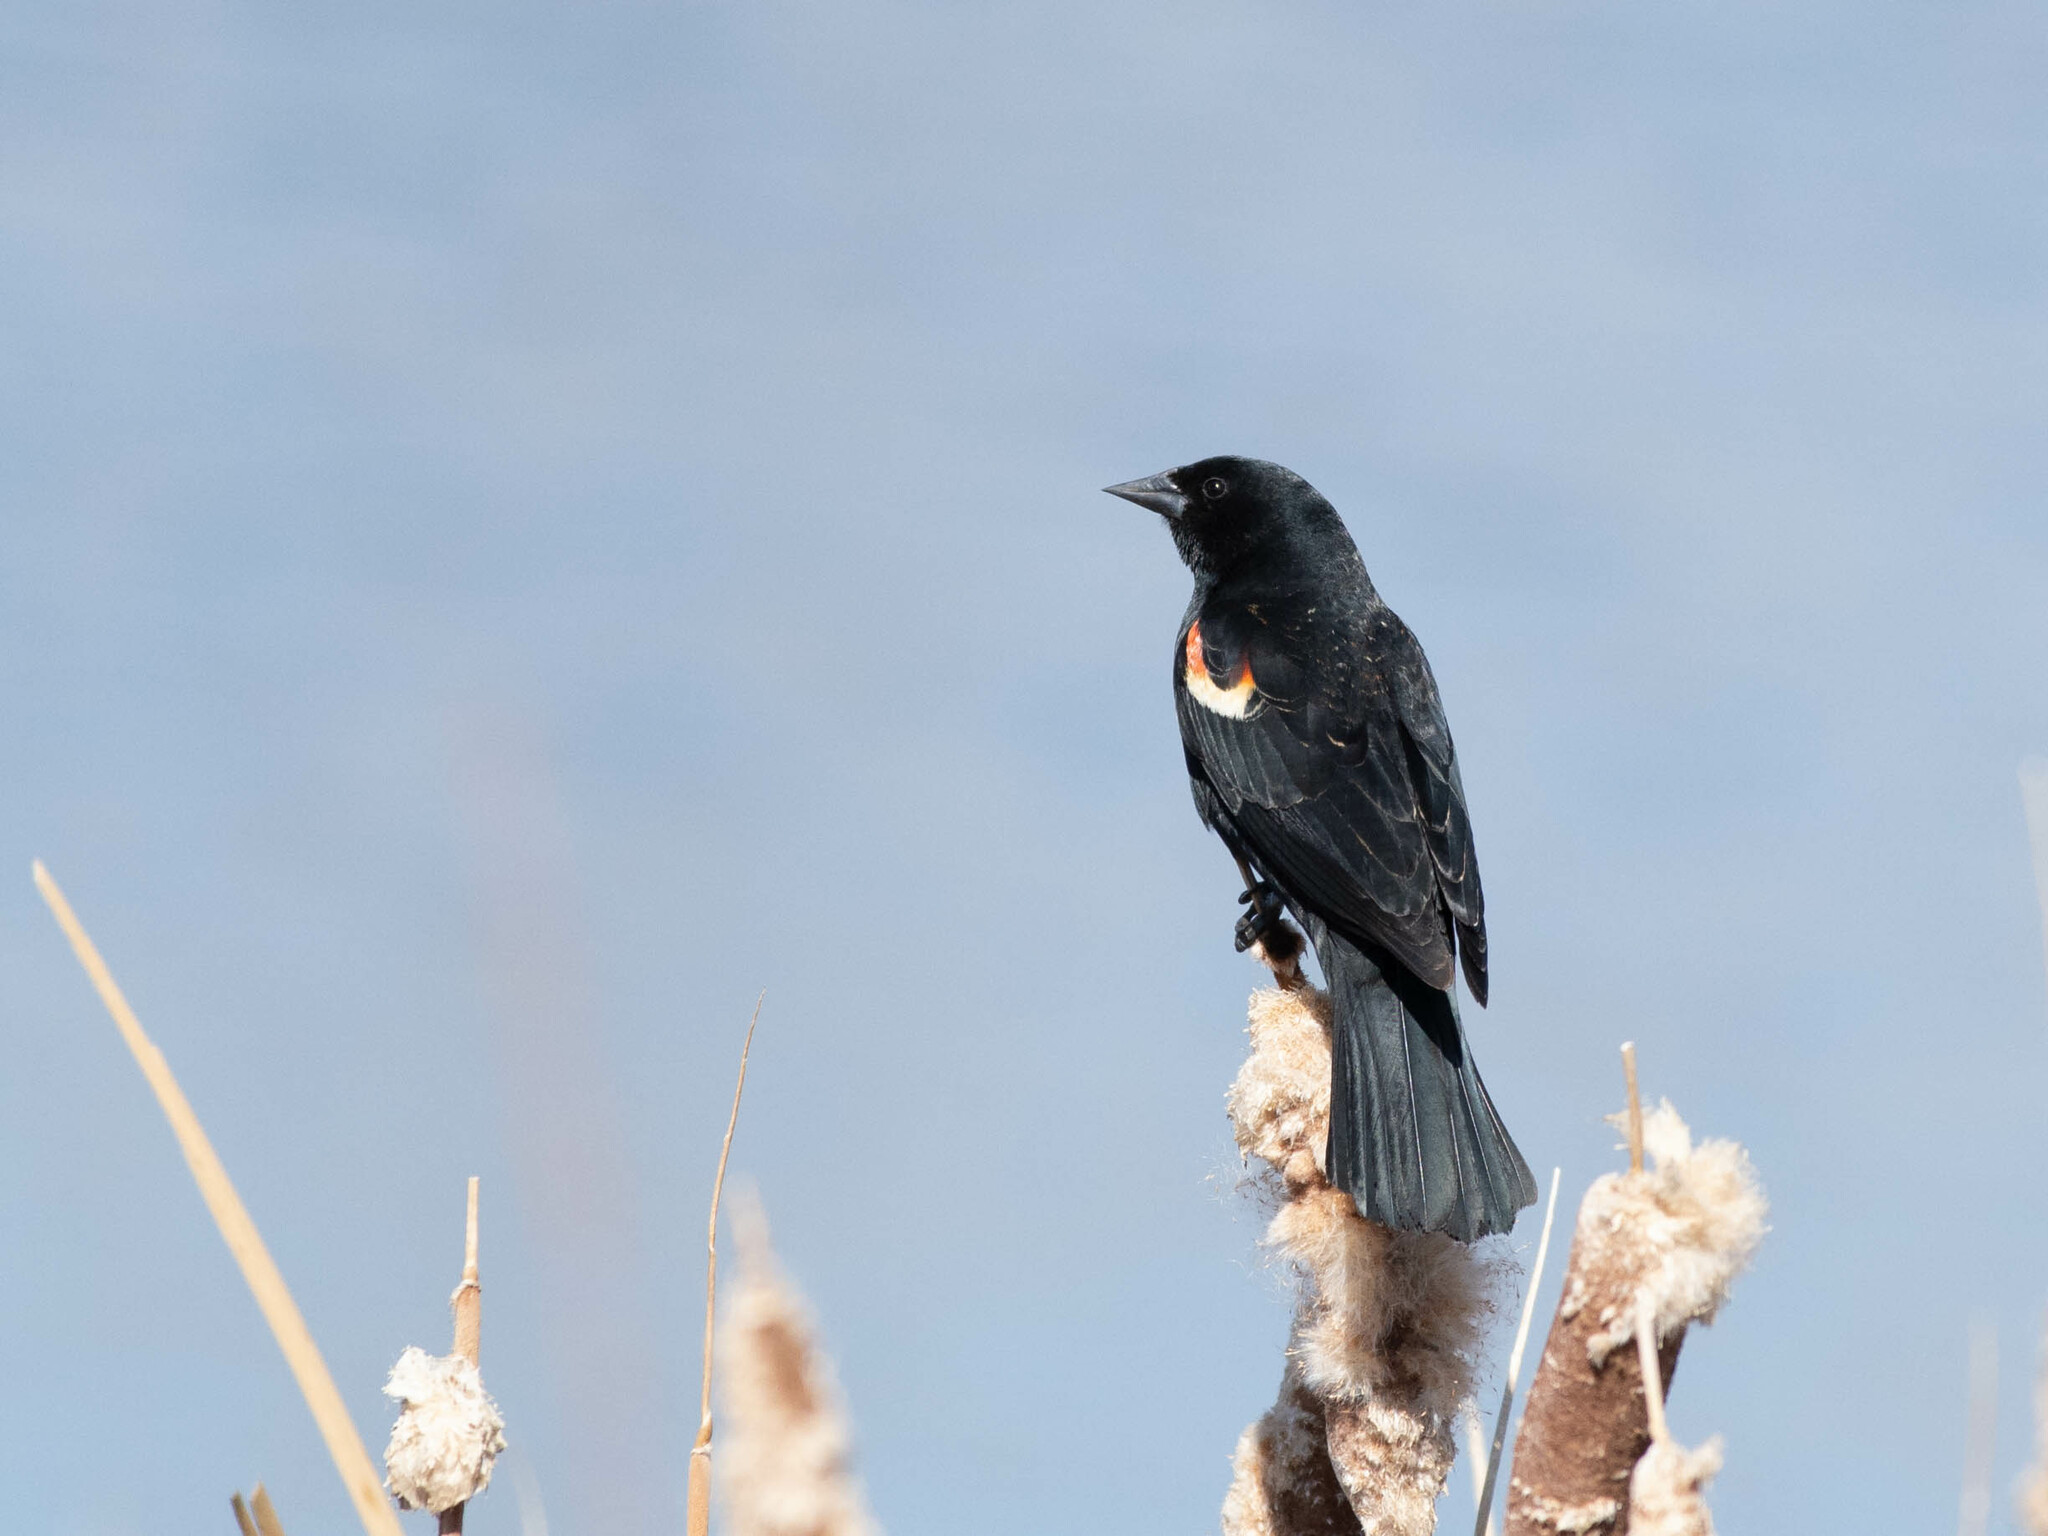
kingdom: Animalia
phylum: Chordata
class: Aves
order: Passeriformes
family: Icteridae
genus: Agelaius
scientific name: Agelaius phoeniceus
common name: Red-winged blackbird
